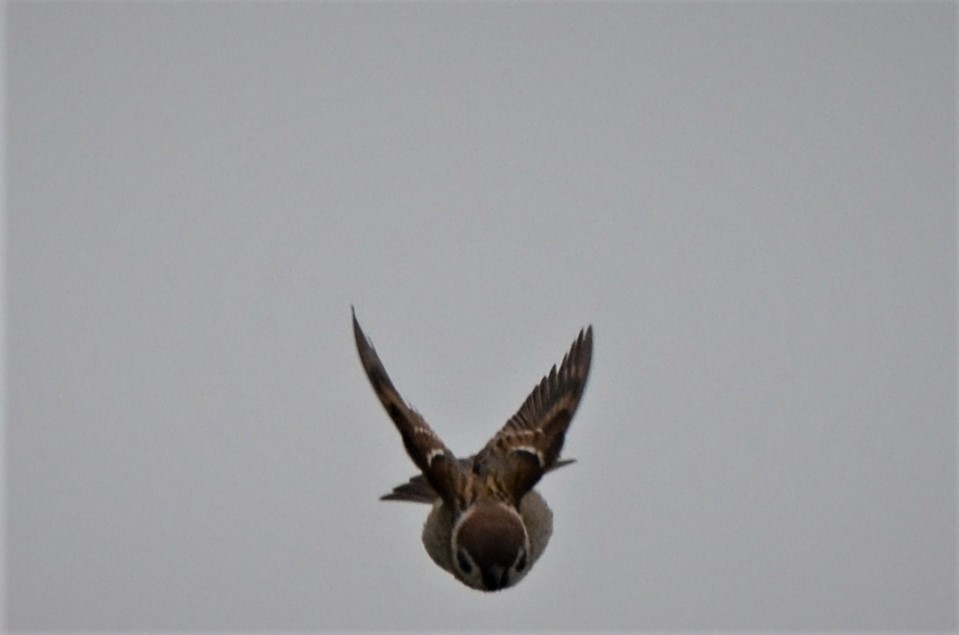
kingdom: Animalia
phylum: Chordata
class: Aves
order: Passeriformes
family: Passeridae
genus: Passer
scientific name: Passer montanus
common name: Eurasian tree sparrow
